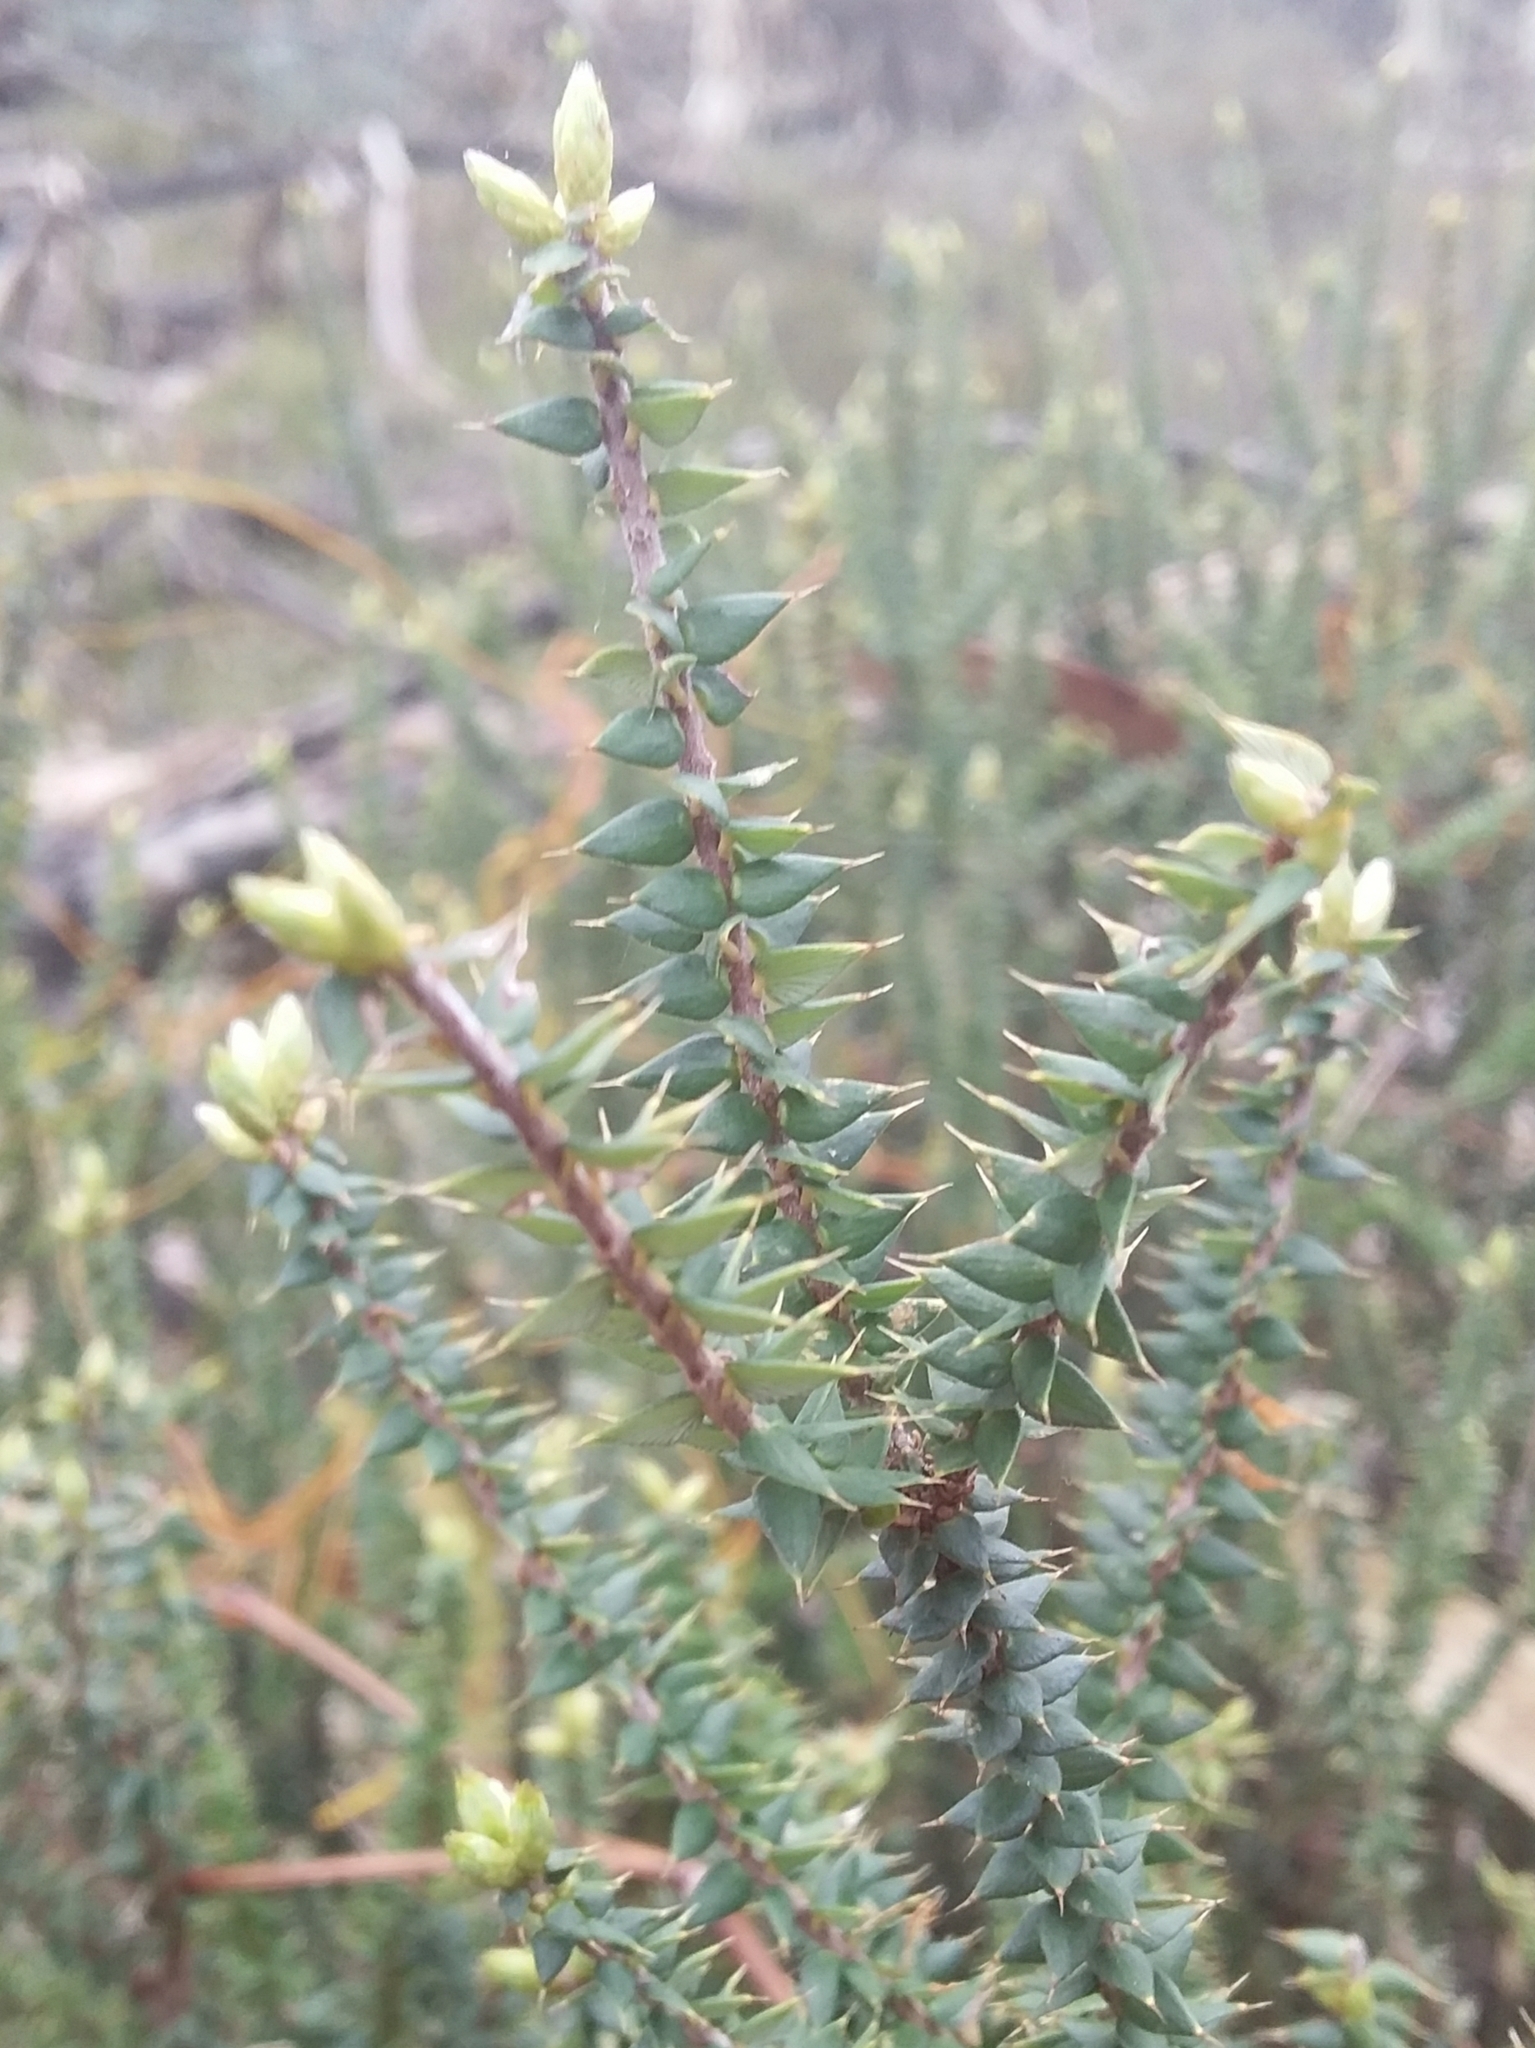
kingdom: Plantae
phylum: Tracheophyta
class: Magnoliopsida
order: Ericales
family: Ericaceae
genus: Acrotriche
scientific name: Acrotriche depressa
